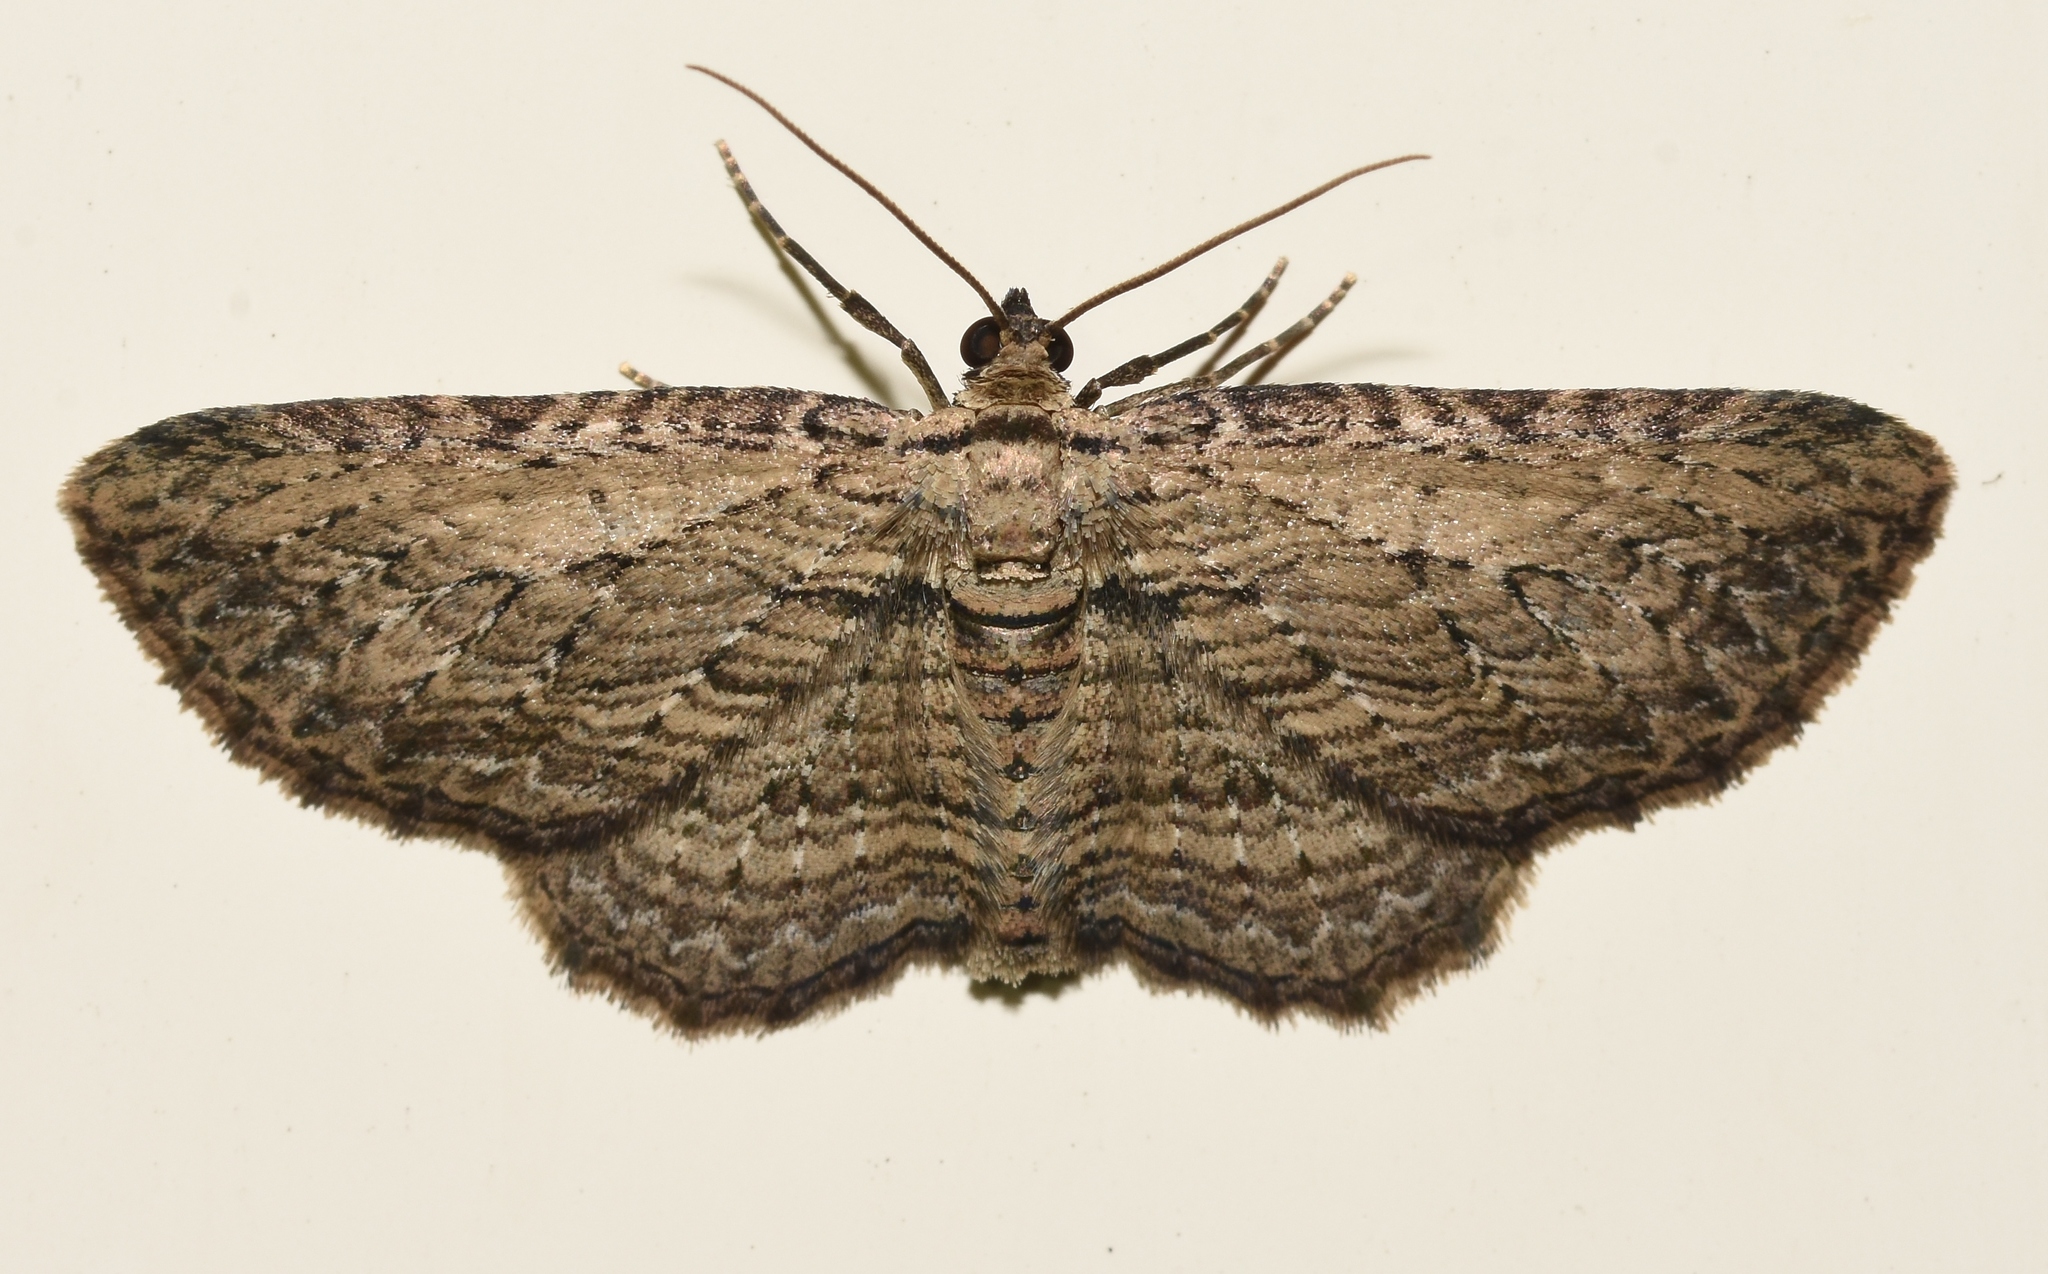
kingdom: Animalia
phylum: Arthropoda
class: Insecta
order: Lepidoptera
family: Geometridae
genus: Horisme
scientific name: Horisme intestinata
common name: Brown bark carpet
